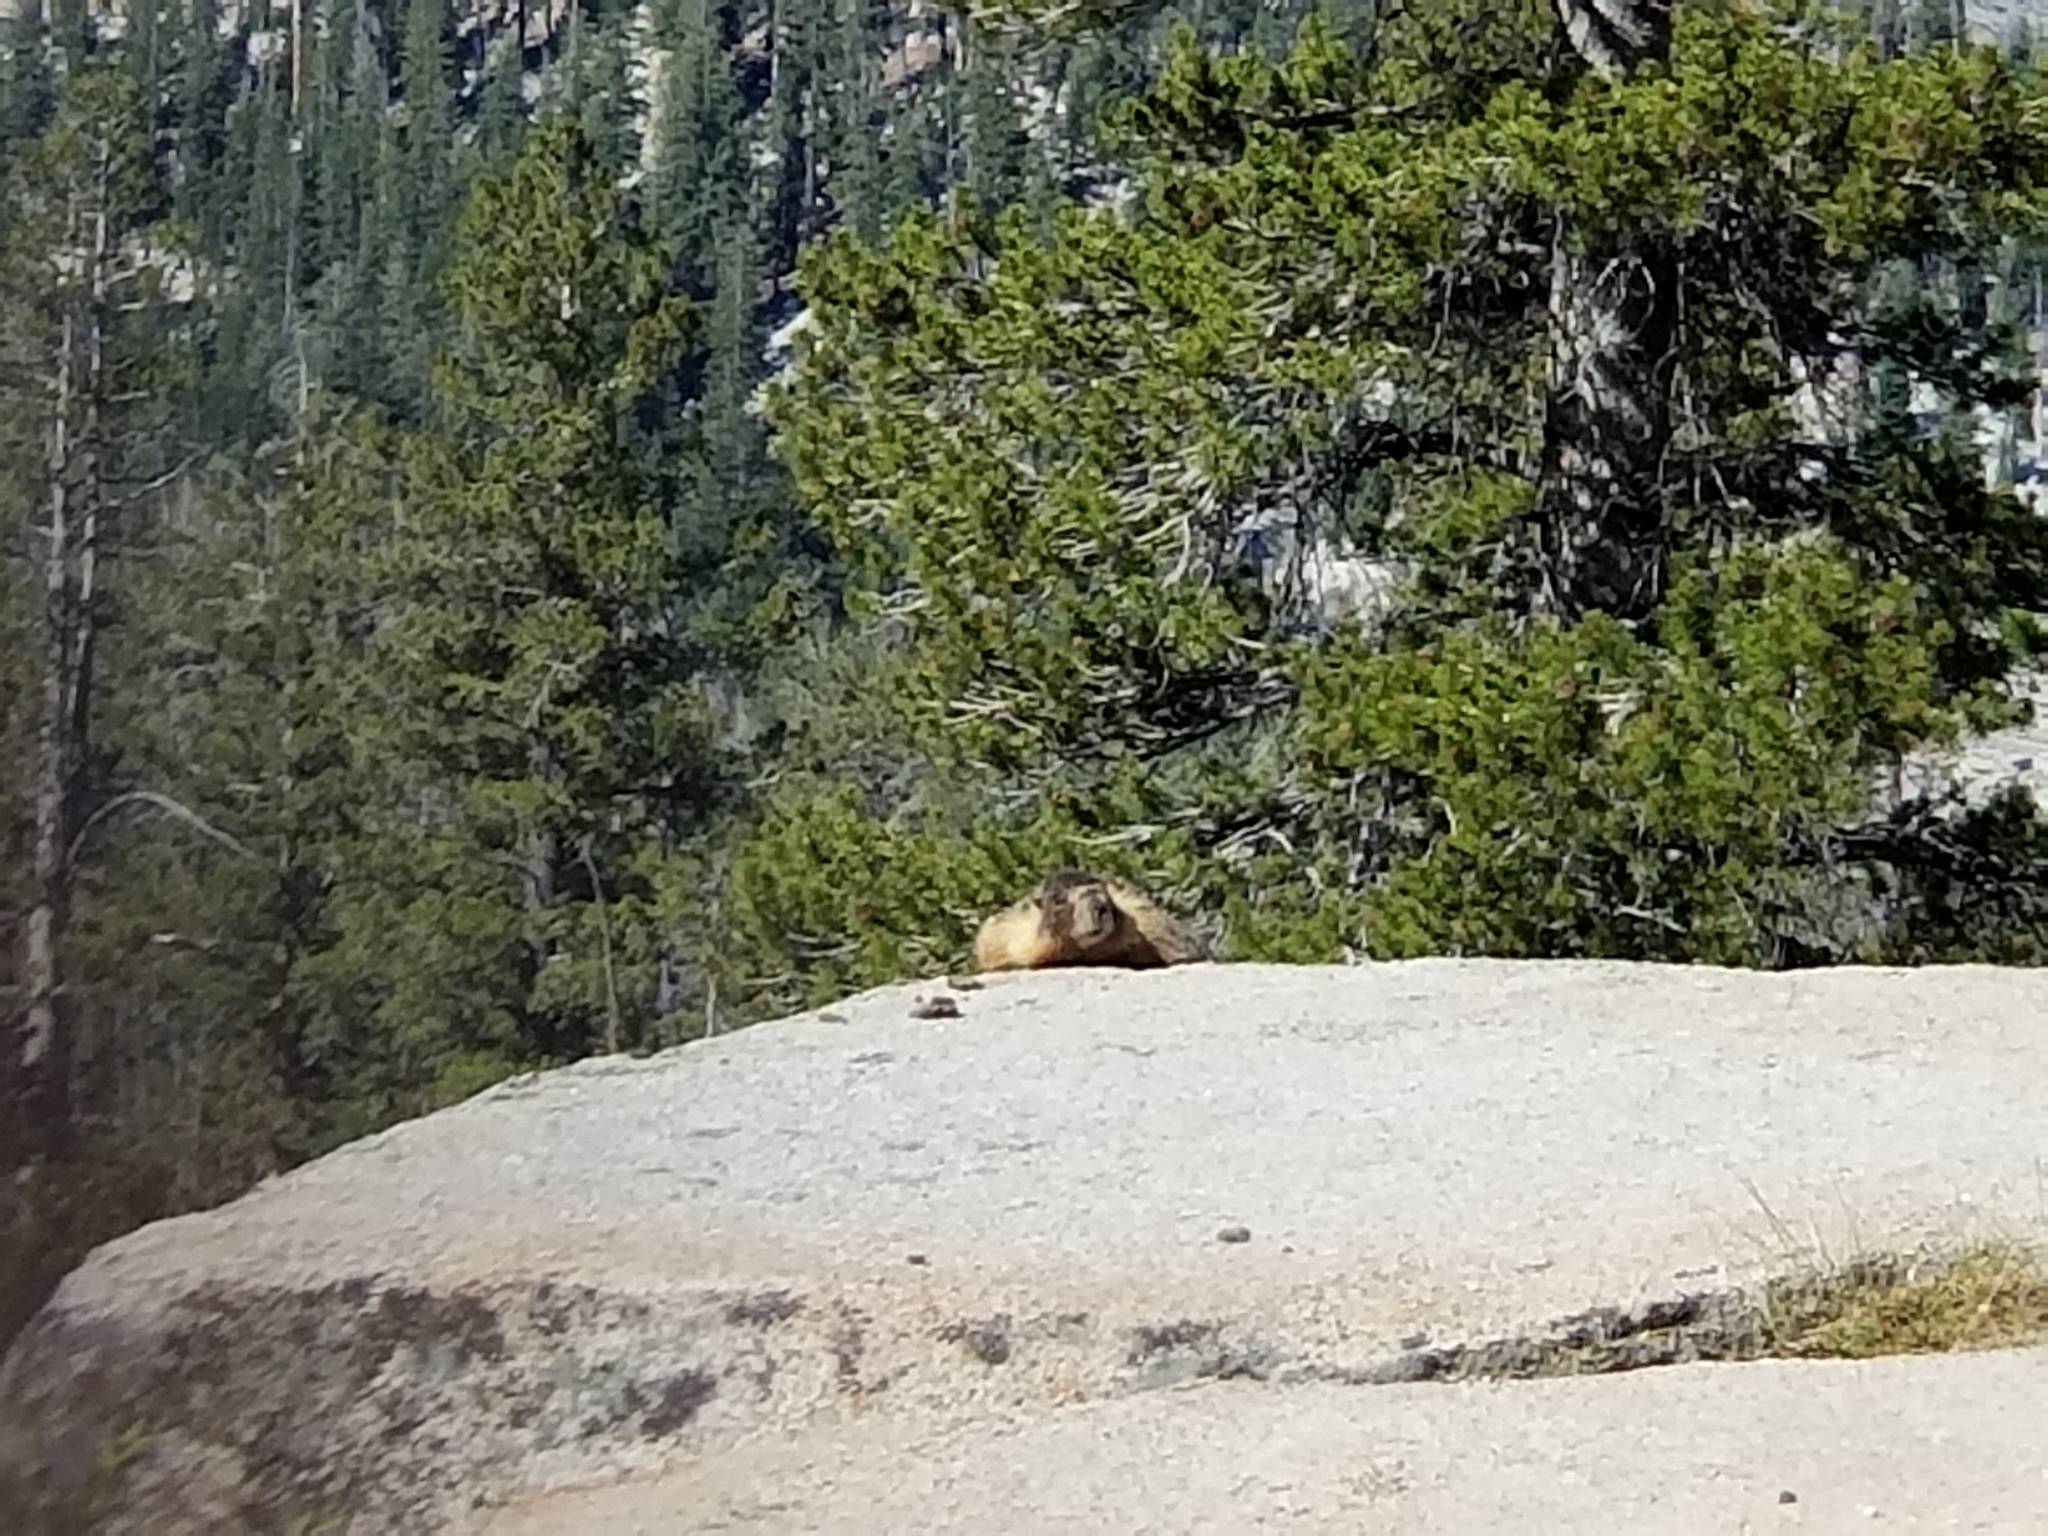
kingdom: Animalia
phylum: Chordata
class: Mammalia
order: Rodentia
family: Sciuridae
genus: Marmota
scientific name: Marmota flaviventris
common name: Yellow-bellied marmot
